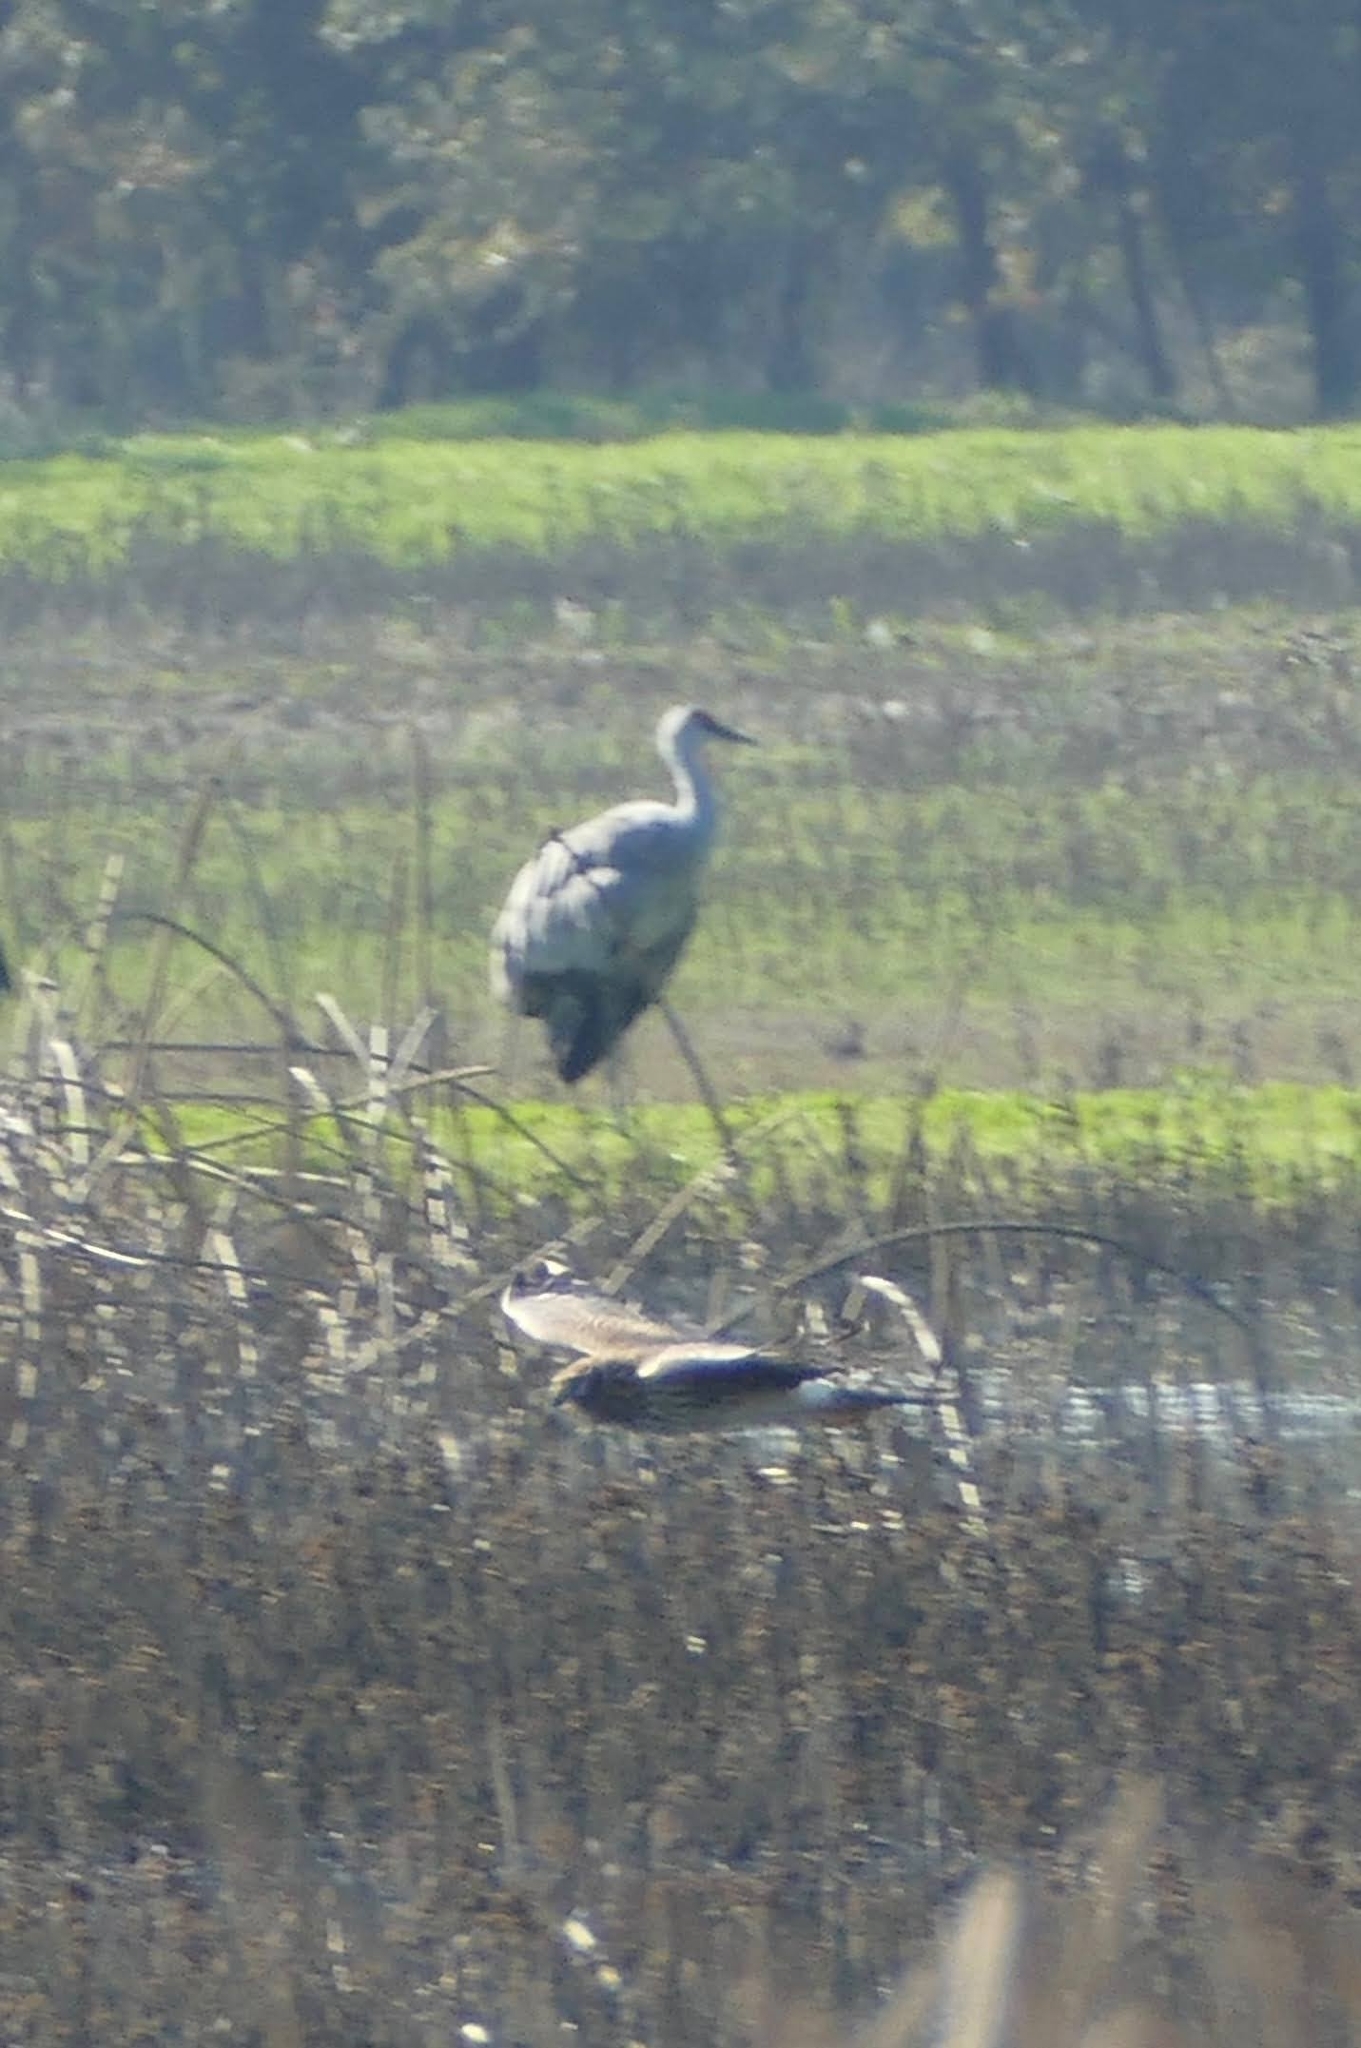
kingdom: Animalia
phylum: Chordata
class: Aves
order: Accipitriformes
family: Accipitridae
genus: Circus
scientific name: Circus cyaneus
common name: Hen harrier
